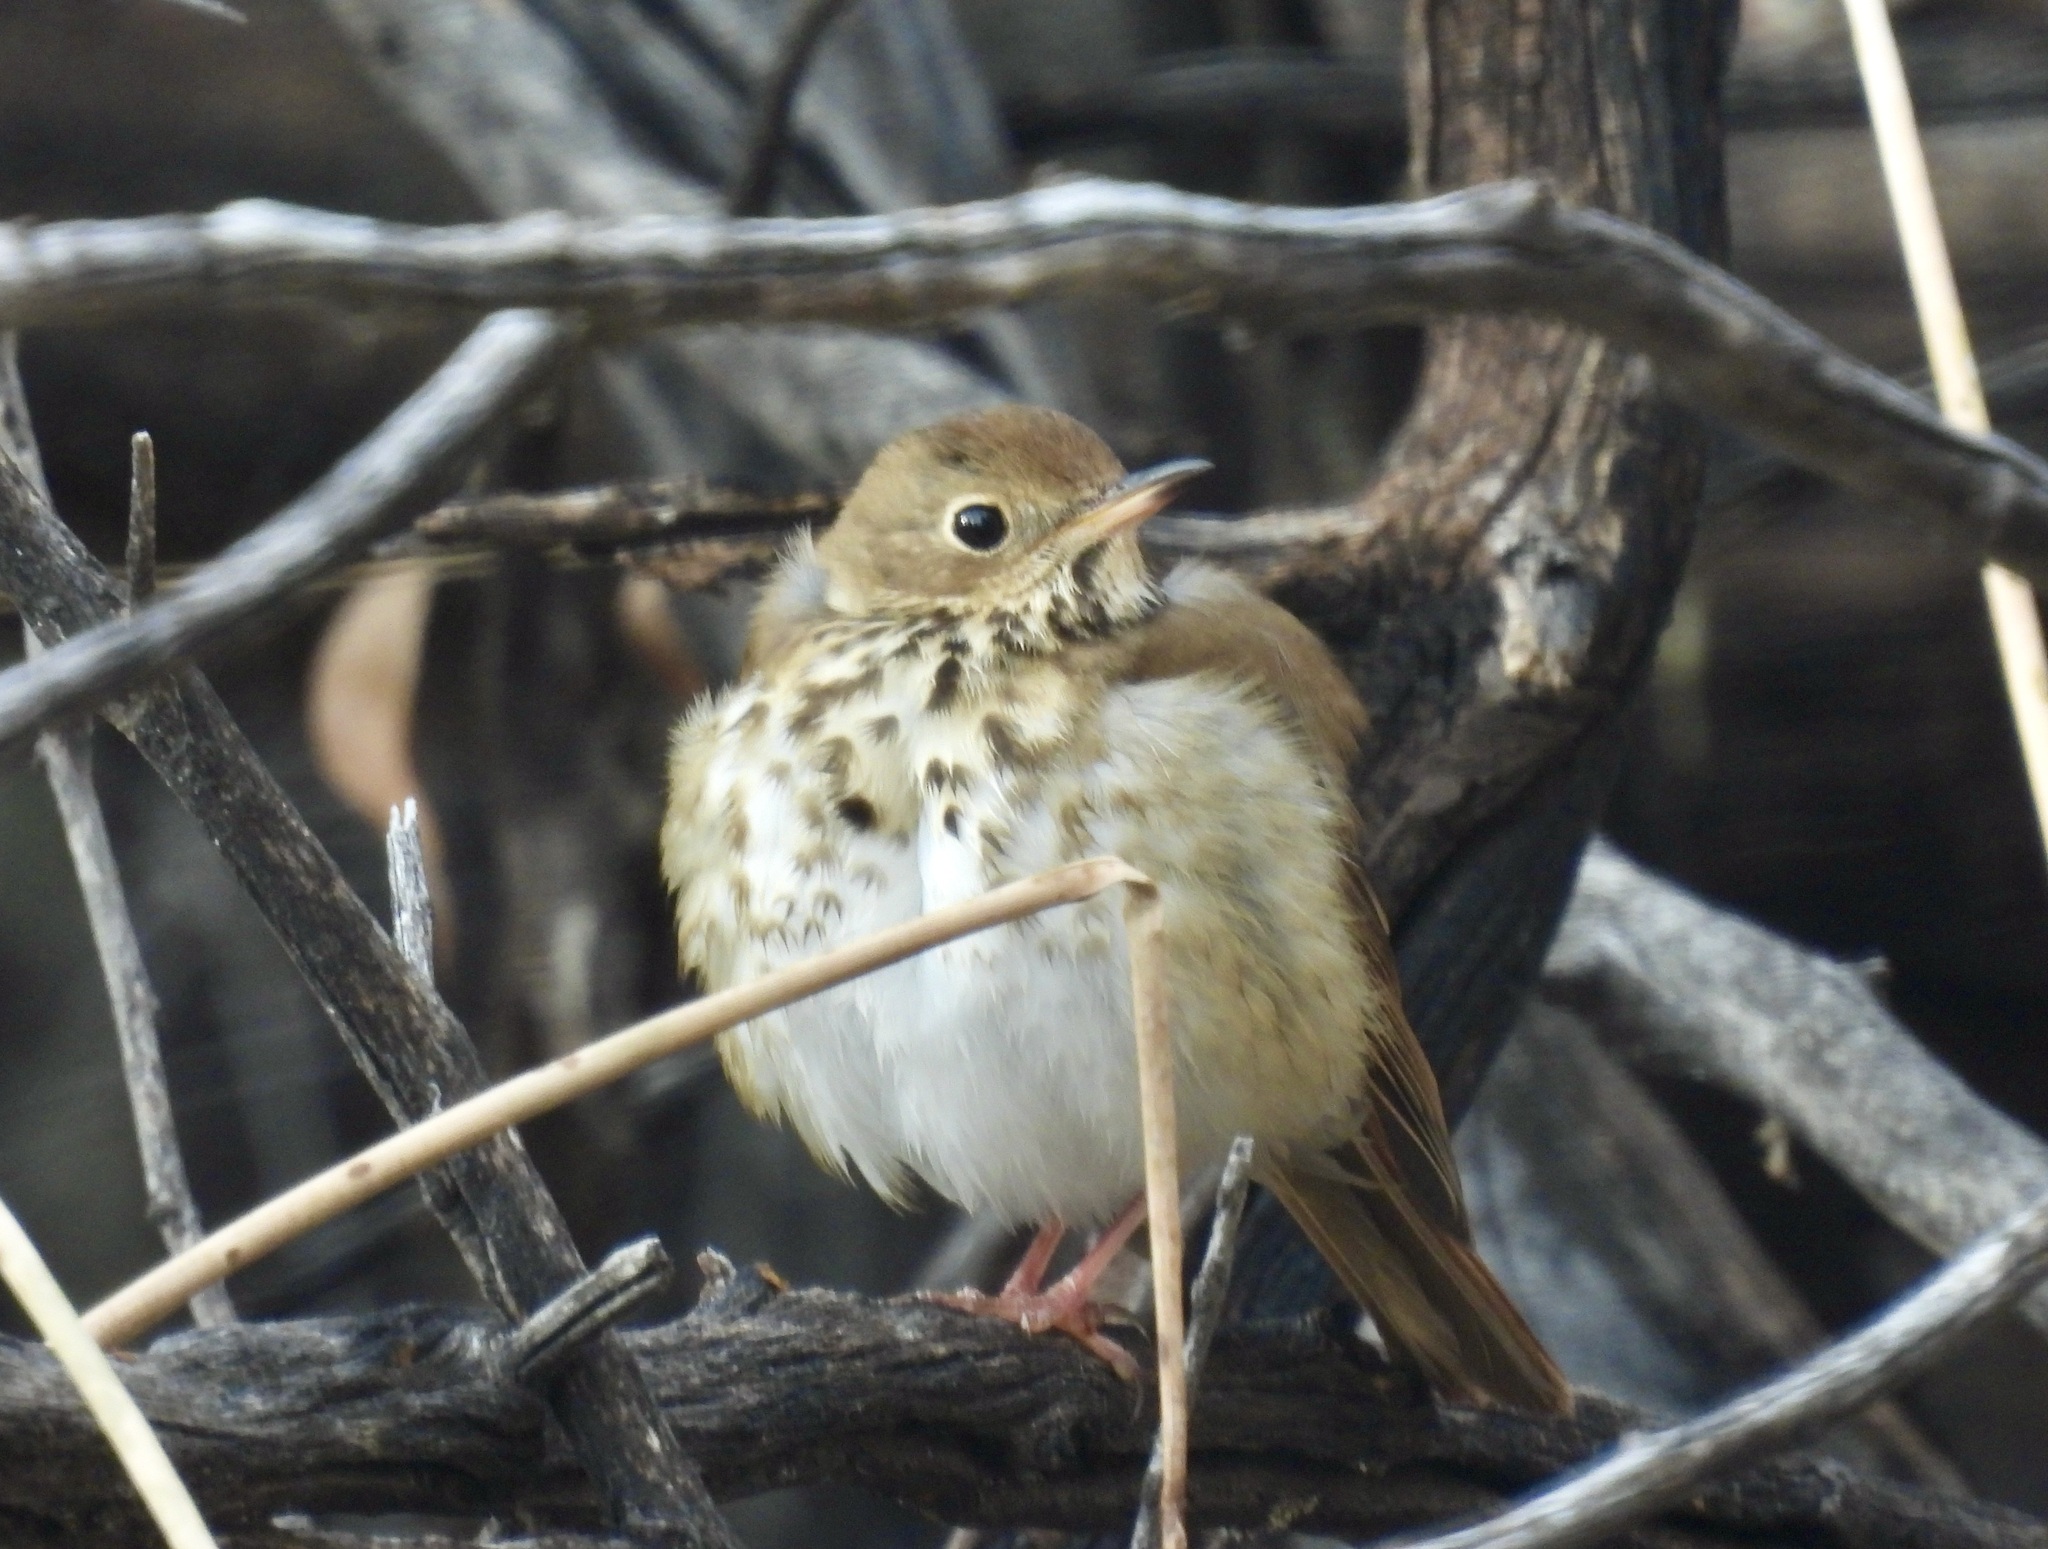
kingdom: Animalia
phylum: Chordata
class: Aves
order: Passeriformes
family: Turdidae
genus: Catharus
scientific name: Catharus guttatus
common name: Hermit thrush
